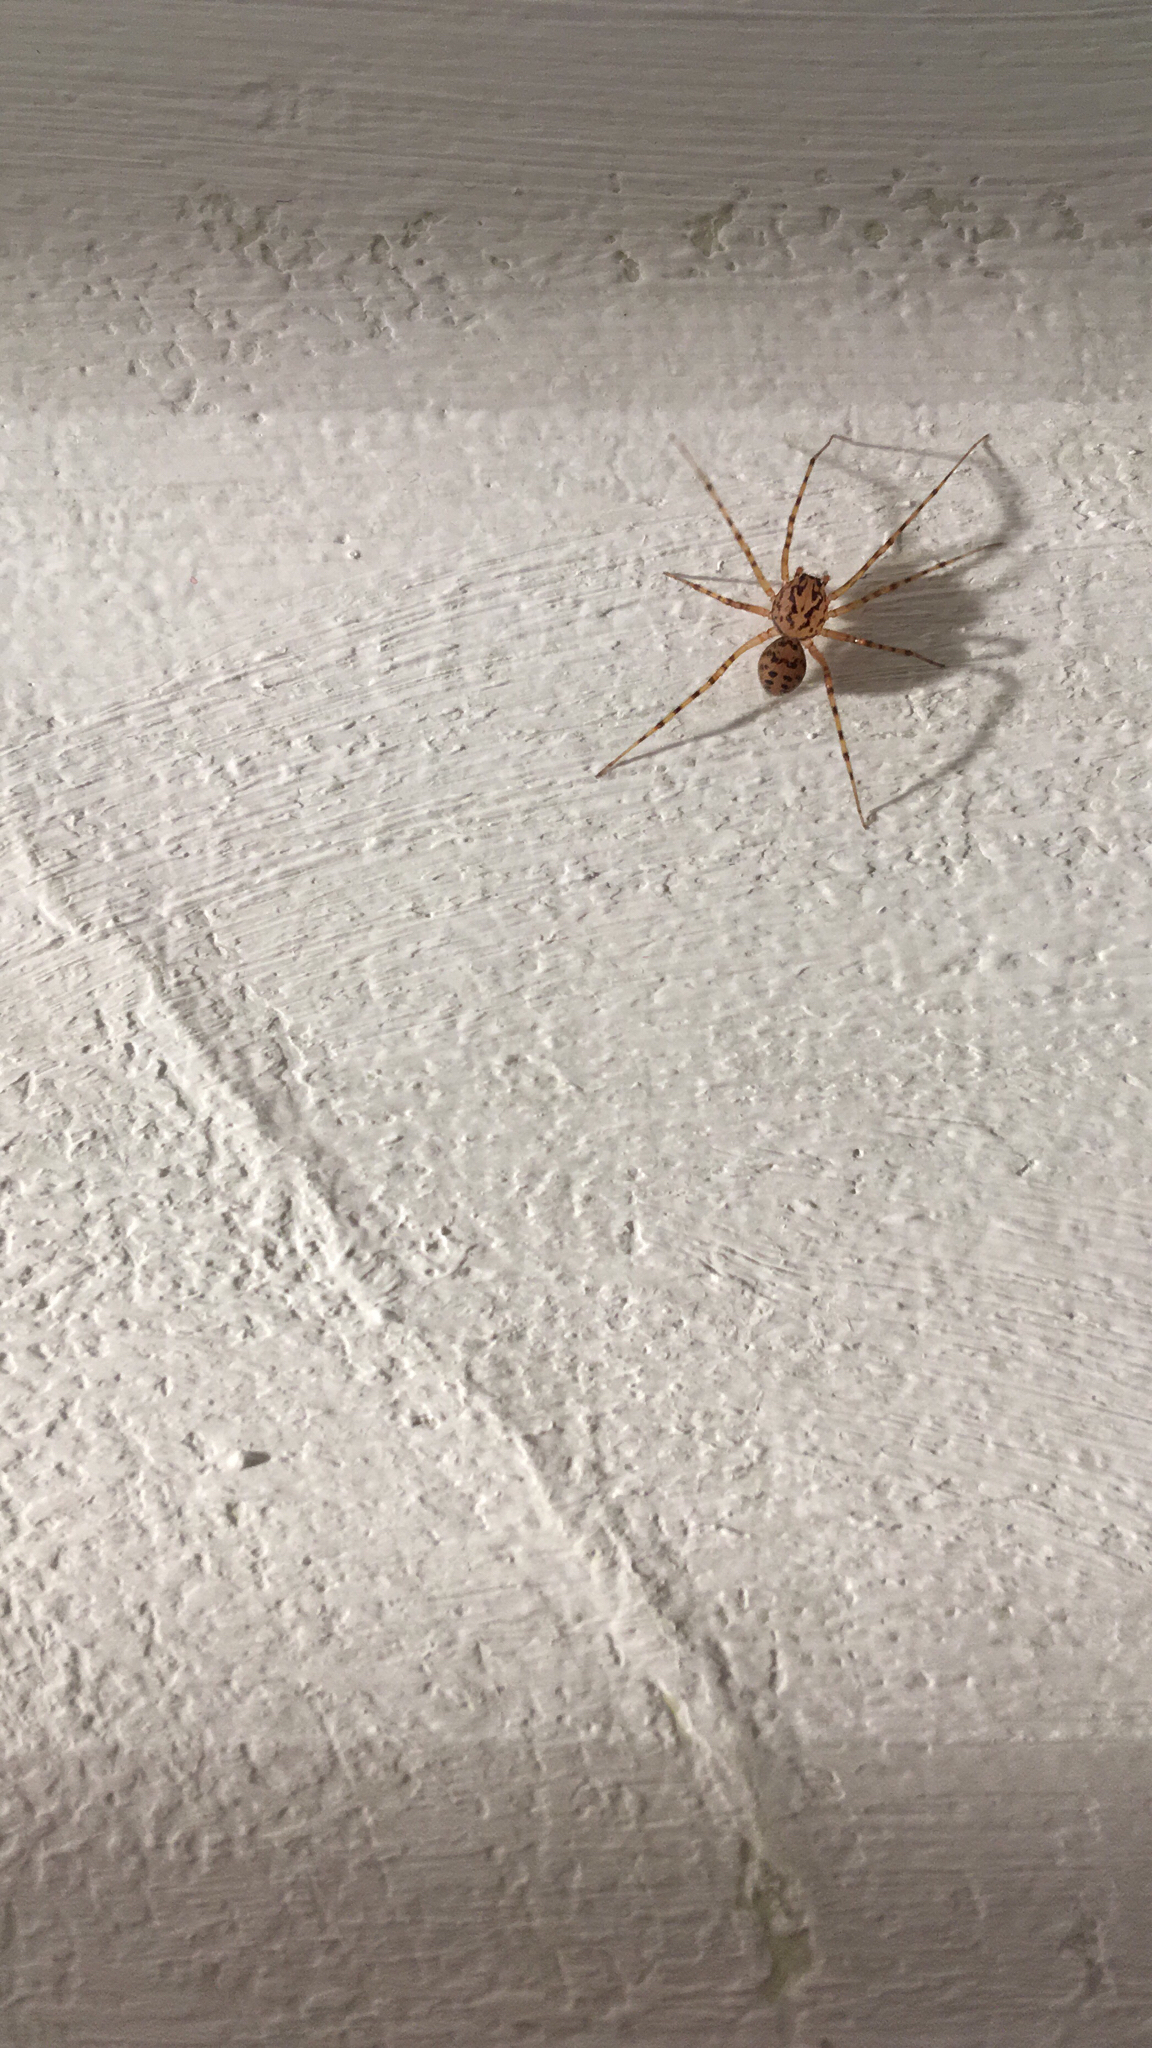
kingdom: Animalia
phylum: Arthropoda
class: Arachnida
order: Araneae
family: Scytodidae
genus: Scytodes
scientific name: Scytodes thoracica
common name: Spitting spider
